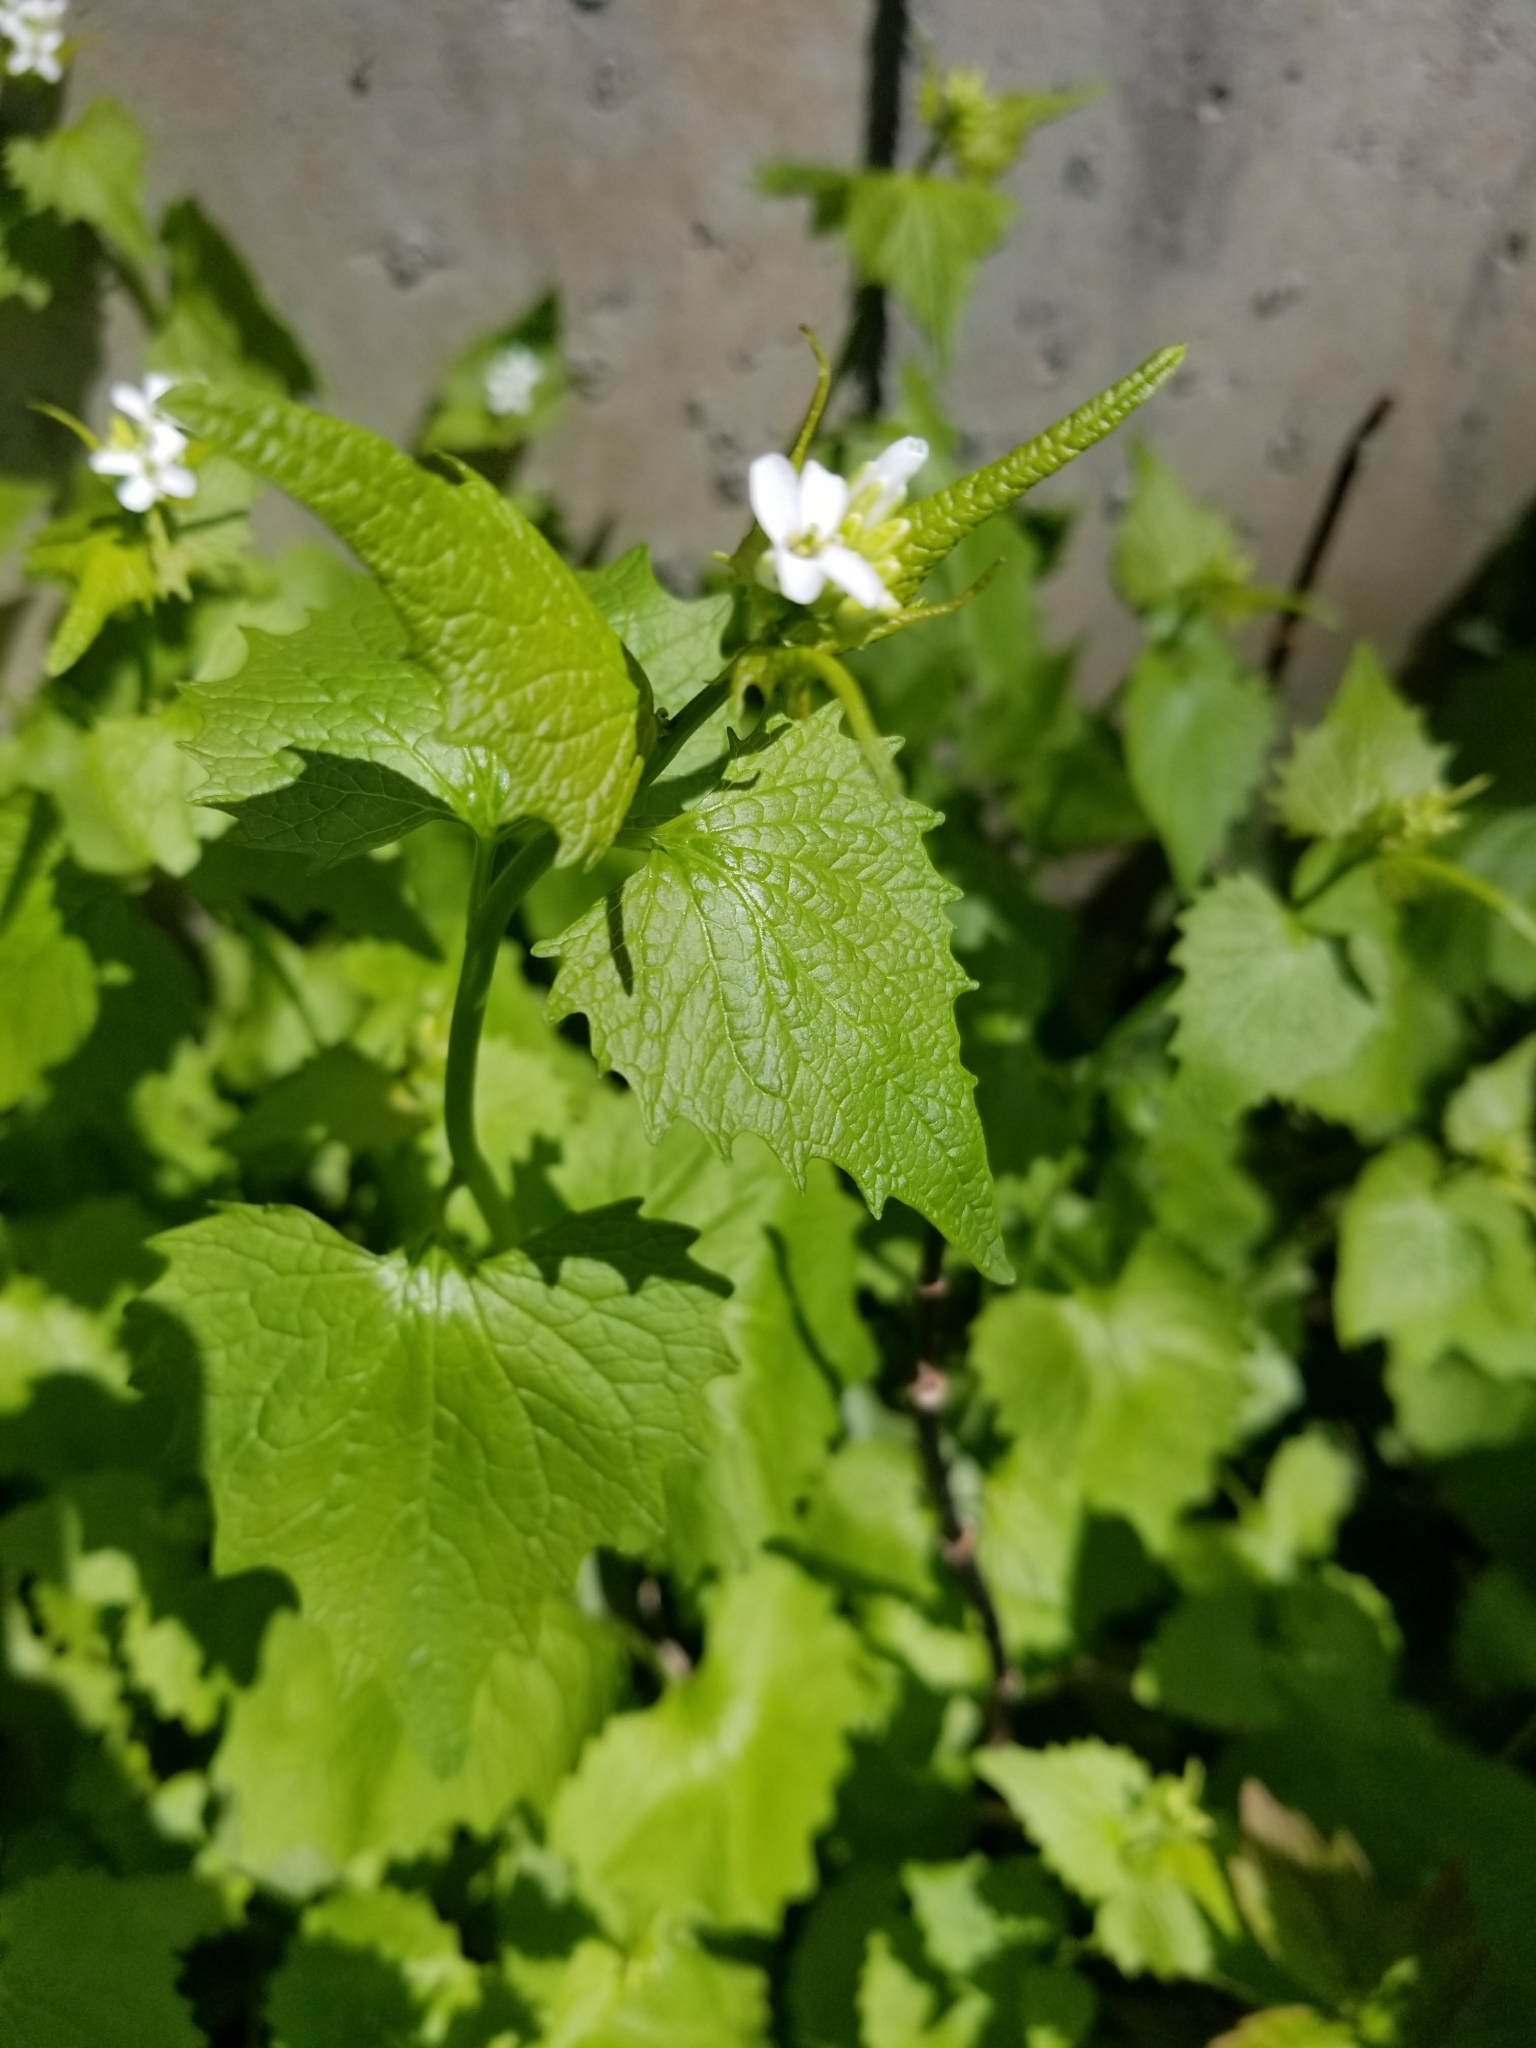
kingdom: Plantae
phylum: Tracheophyta
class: Magnoliopsida
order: Brassicales
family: Brassicaceae
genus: Alliaria
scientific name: Alliaria petiolata
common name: Garlic mustard
